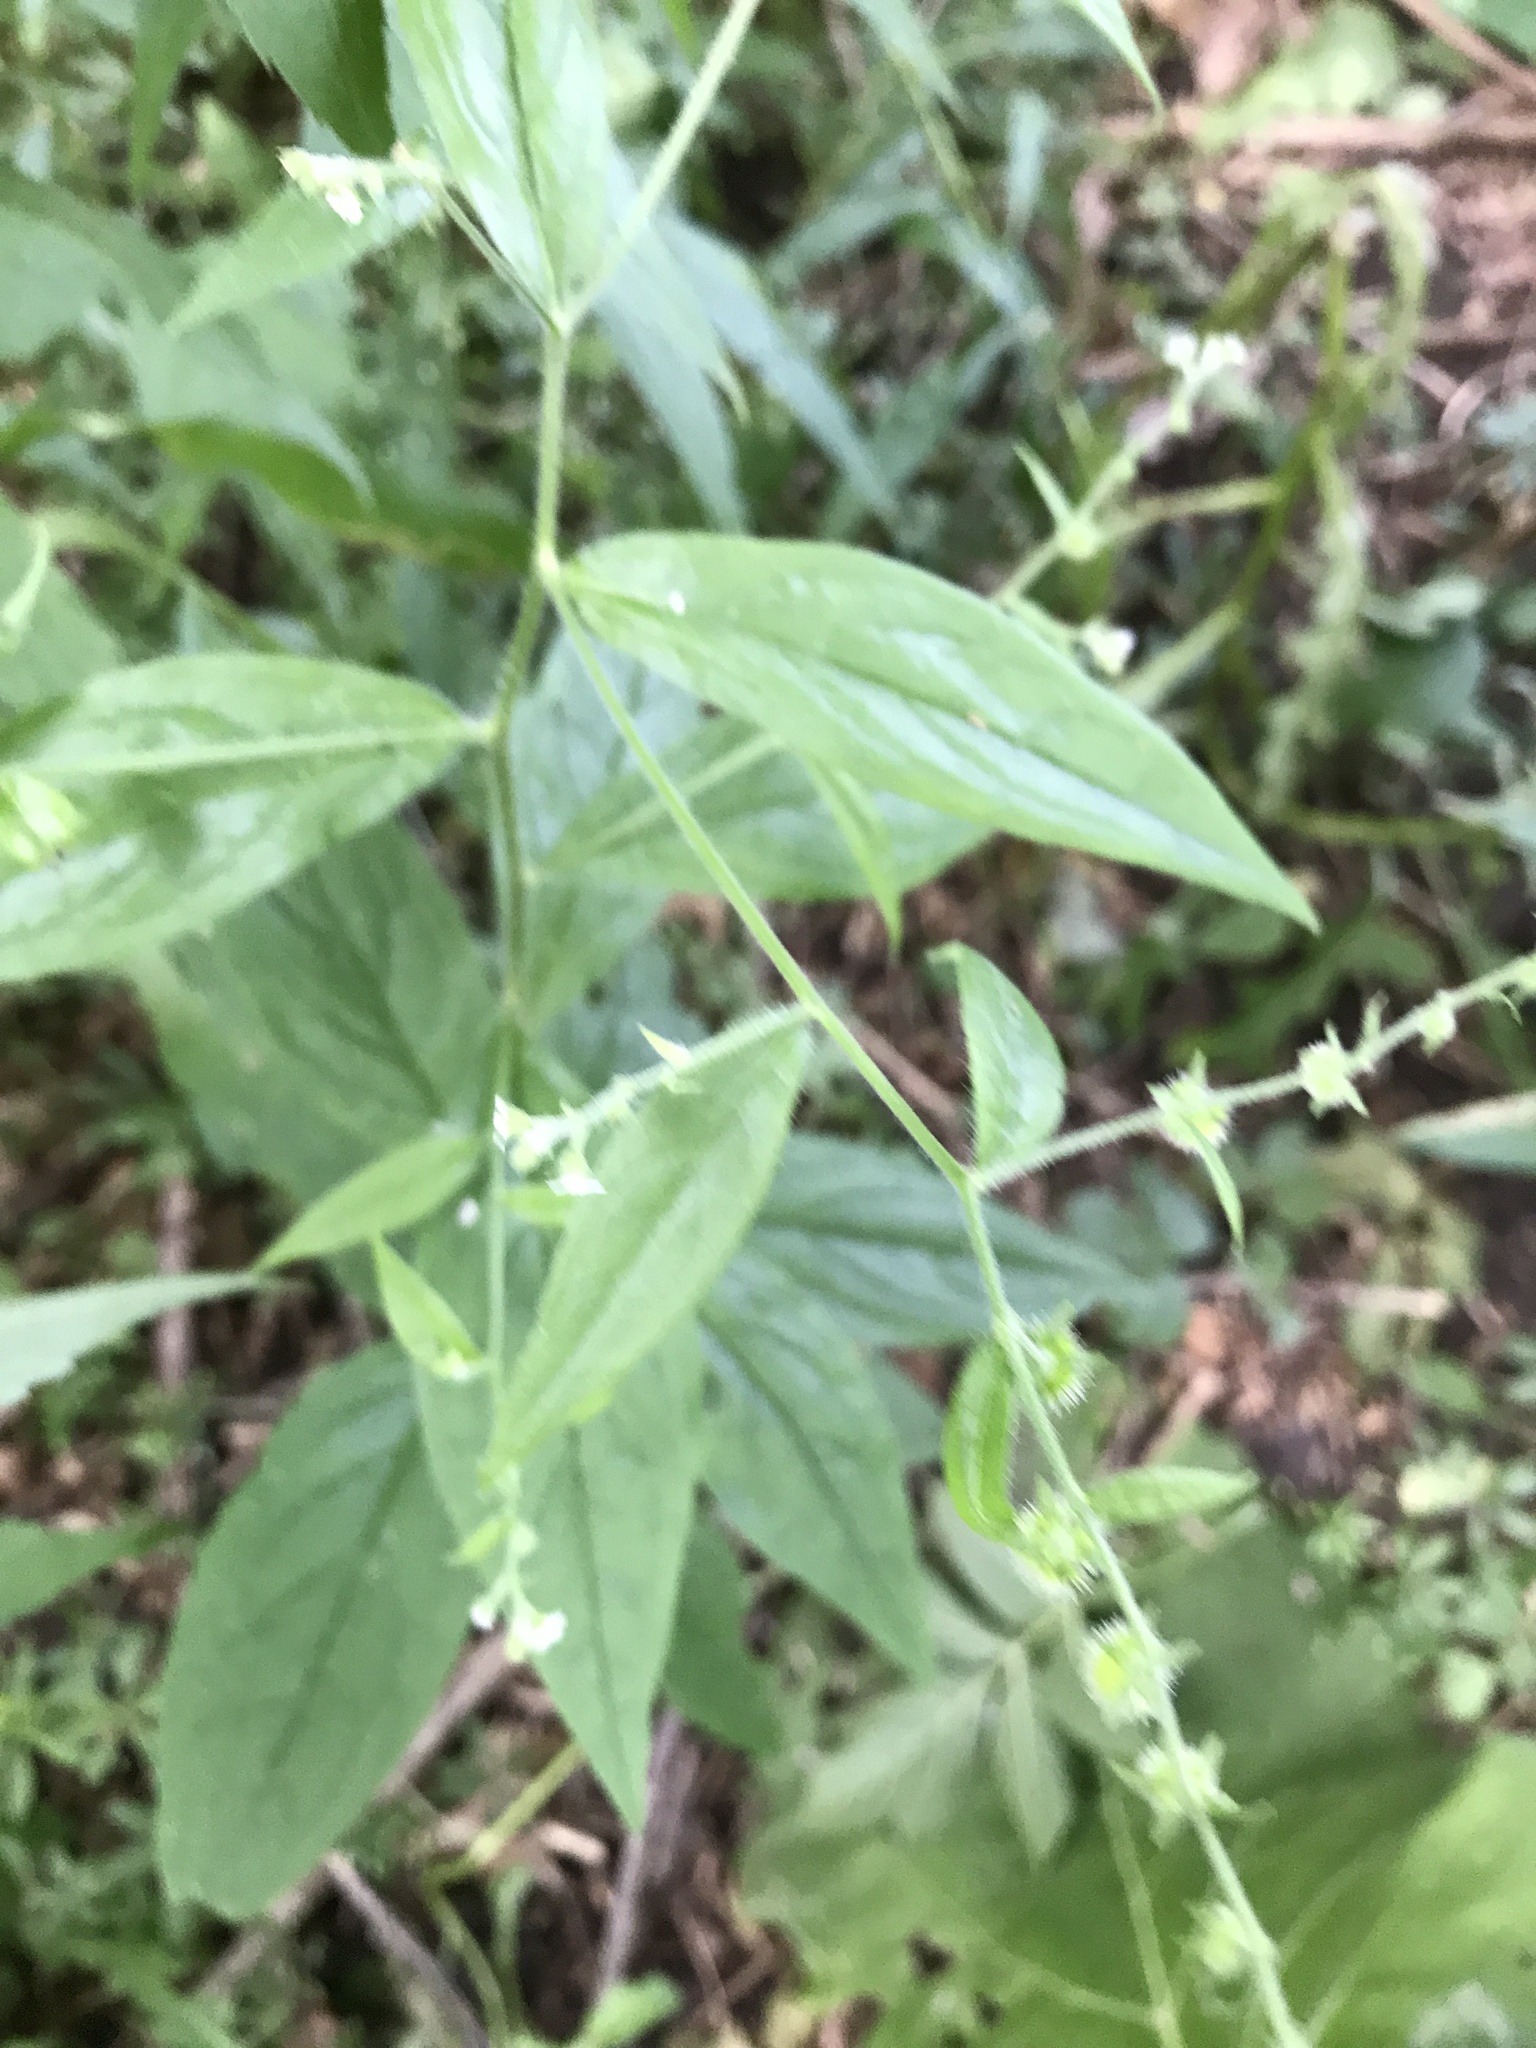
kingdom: Plantae
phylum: Tracheophyta
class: Magnoliopsida
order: Boraginales
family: Boraginaceae
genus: Hackelia
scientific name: Hackelia virginiana
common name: Beggar's-lice
